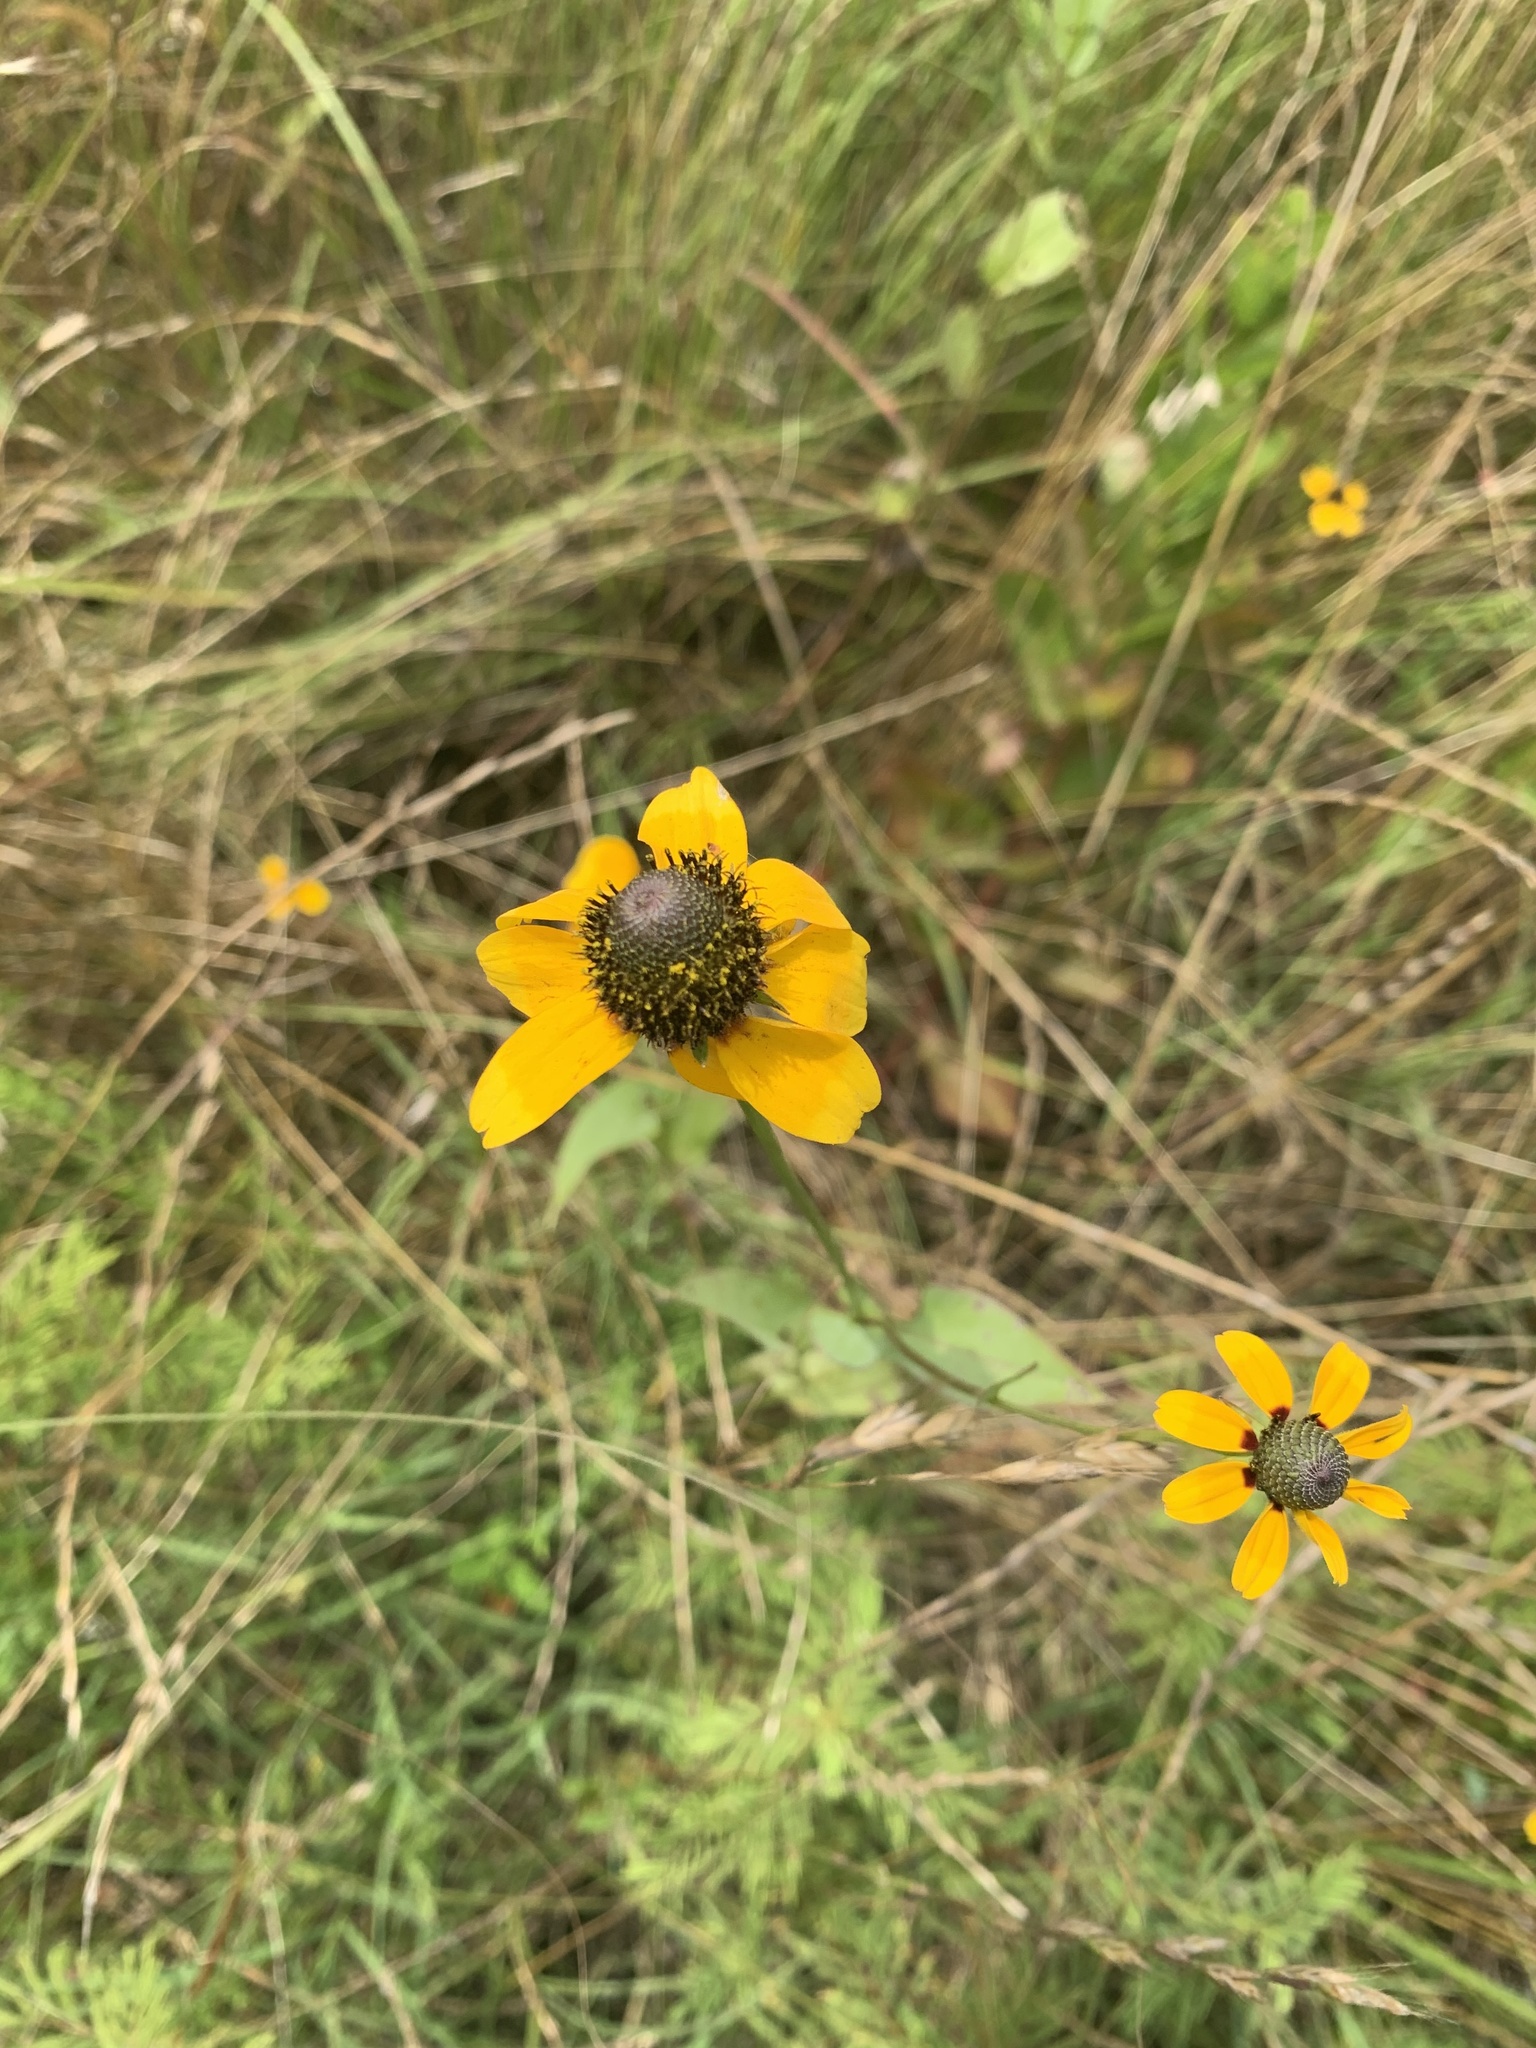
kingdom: Plantae
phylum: Tracheophyta
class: Magnoliopsida
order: Asterales
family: Asteraceae
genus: Rudbeckia
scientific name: Rudbeckia amplexicaulis
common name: Clasping-leaf coneflower
